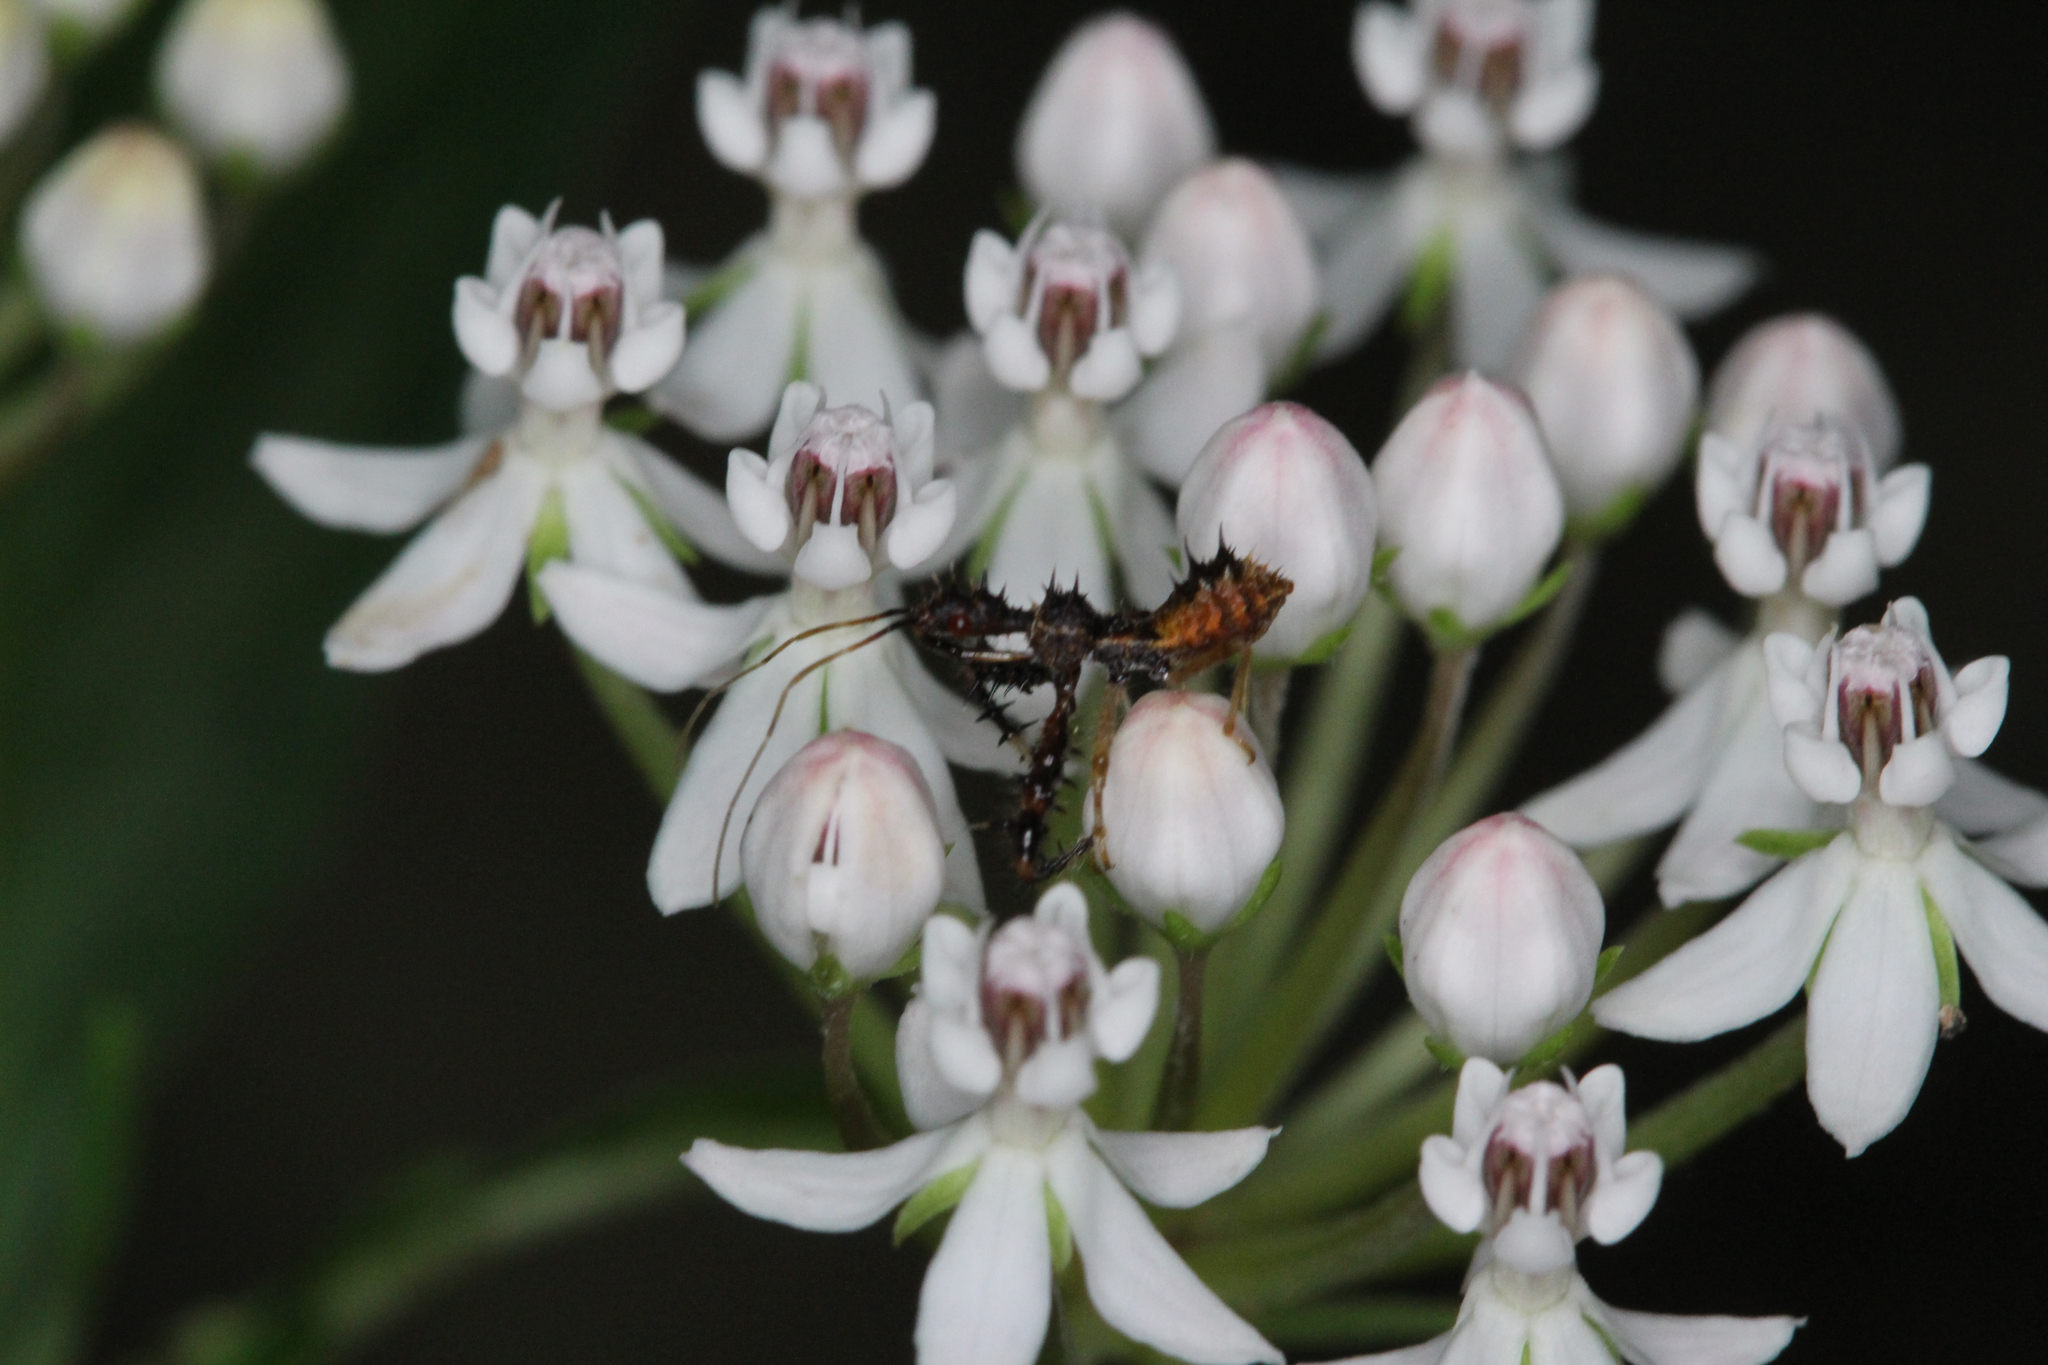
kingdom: Plantae
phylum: Tracheophyta
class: Magnoliopsida
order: Gentianales
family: Apocynaceae
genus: Asclepias
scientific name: Asclepias perennis
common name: Smooth-seed milkweed
